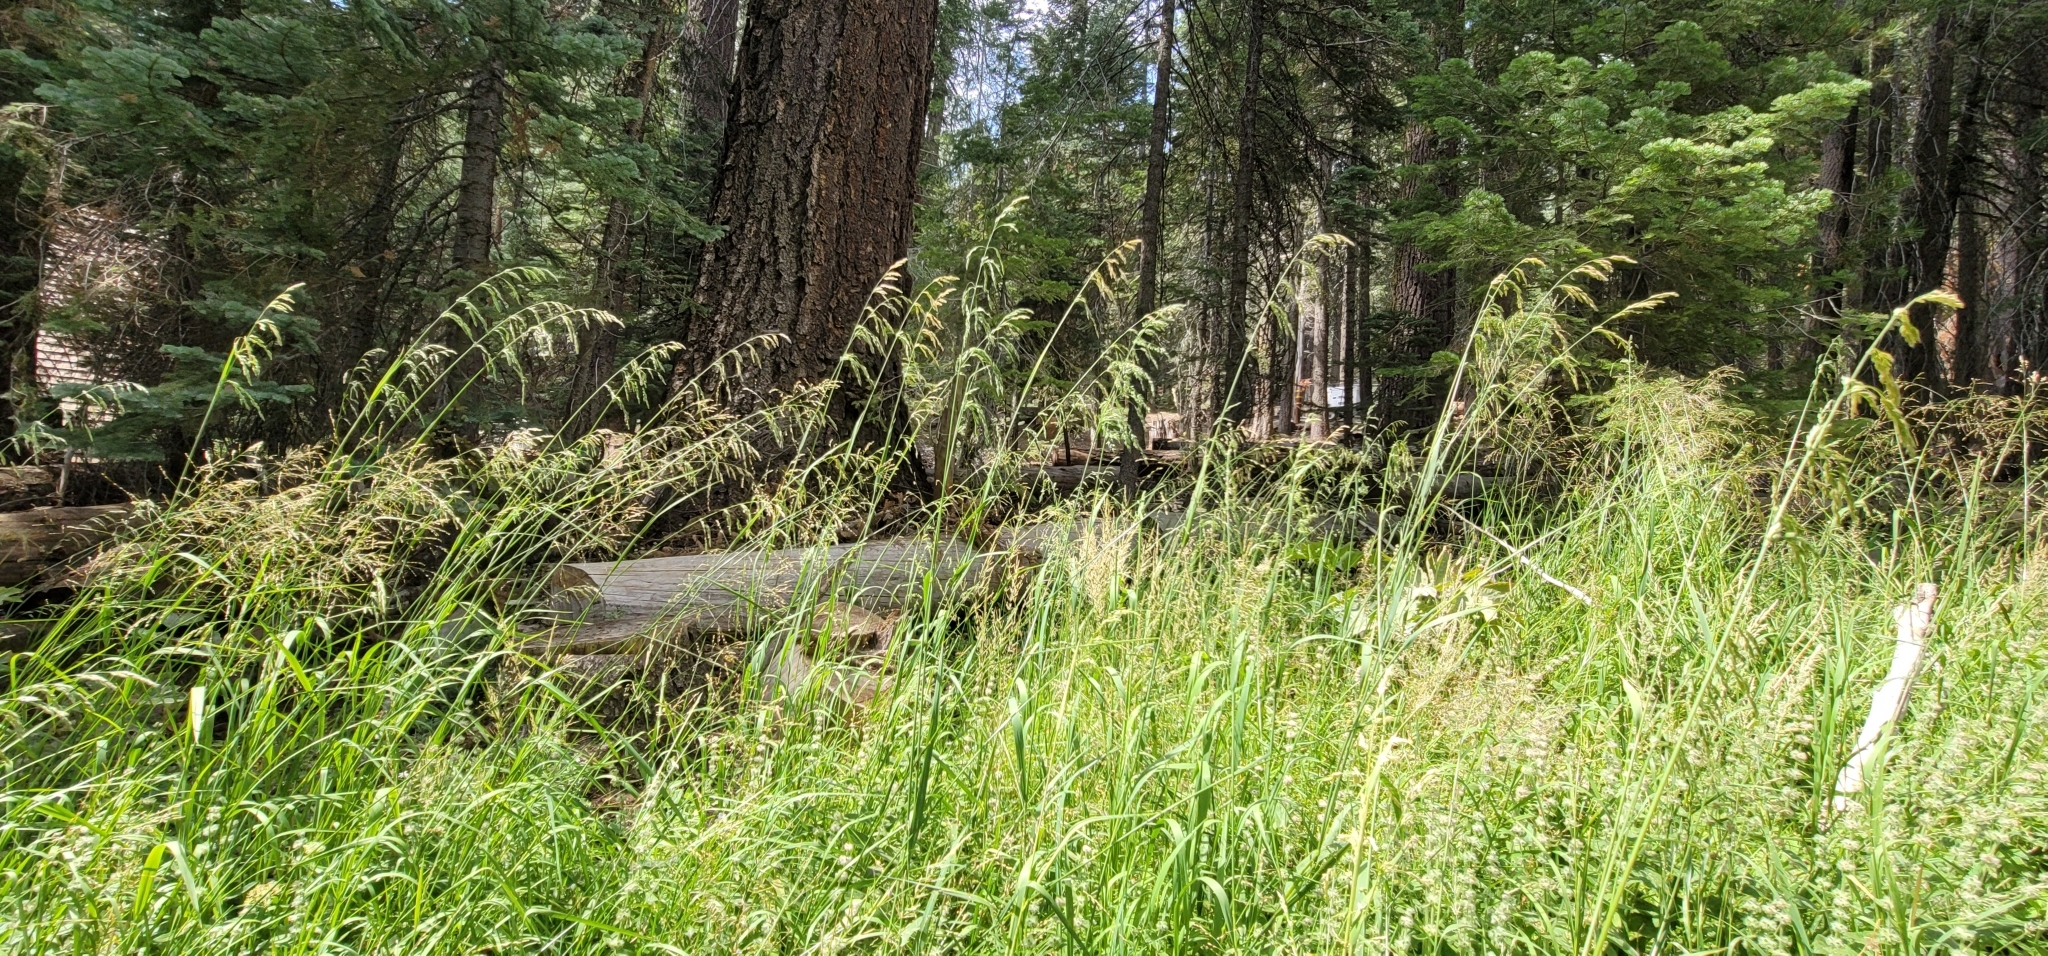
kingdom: Plantae
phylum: Tracheophyta
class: Liliopsida
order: Poales
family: Poaceae
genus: Cinna
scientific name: Cinna bolanderi
